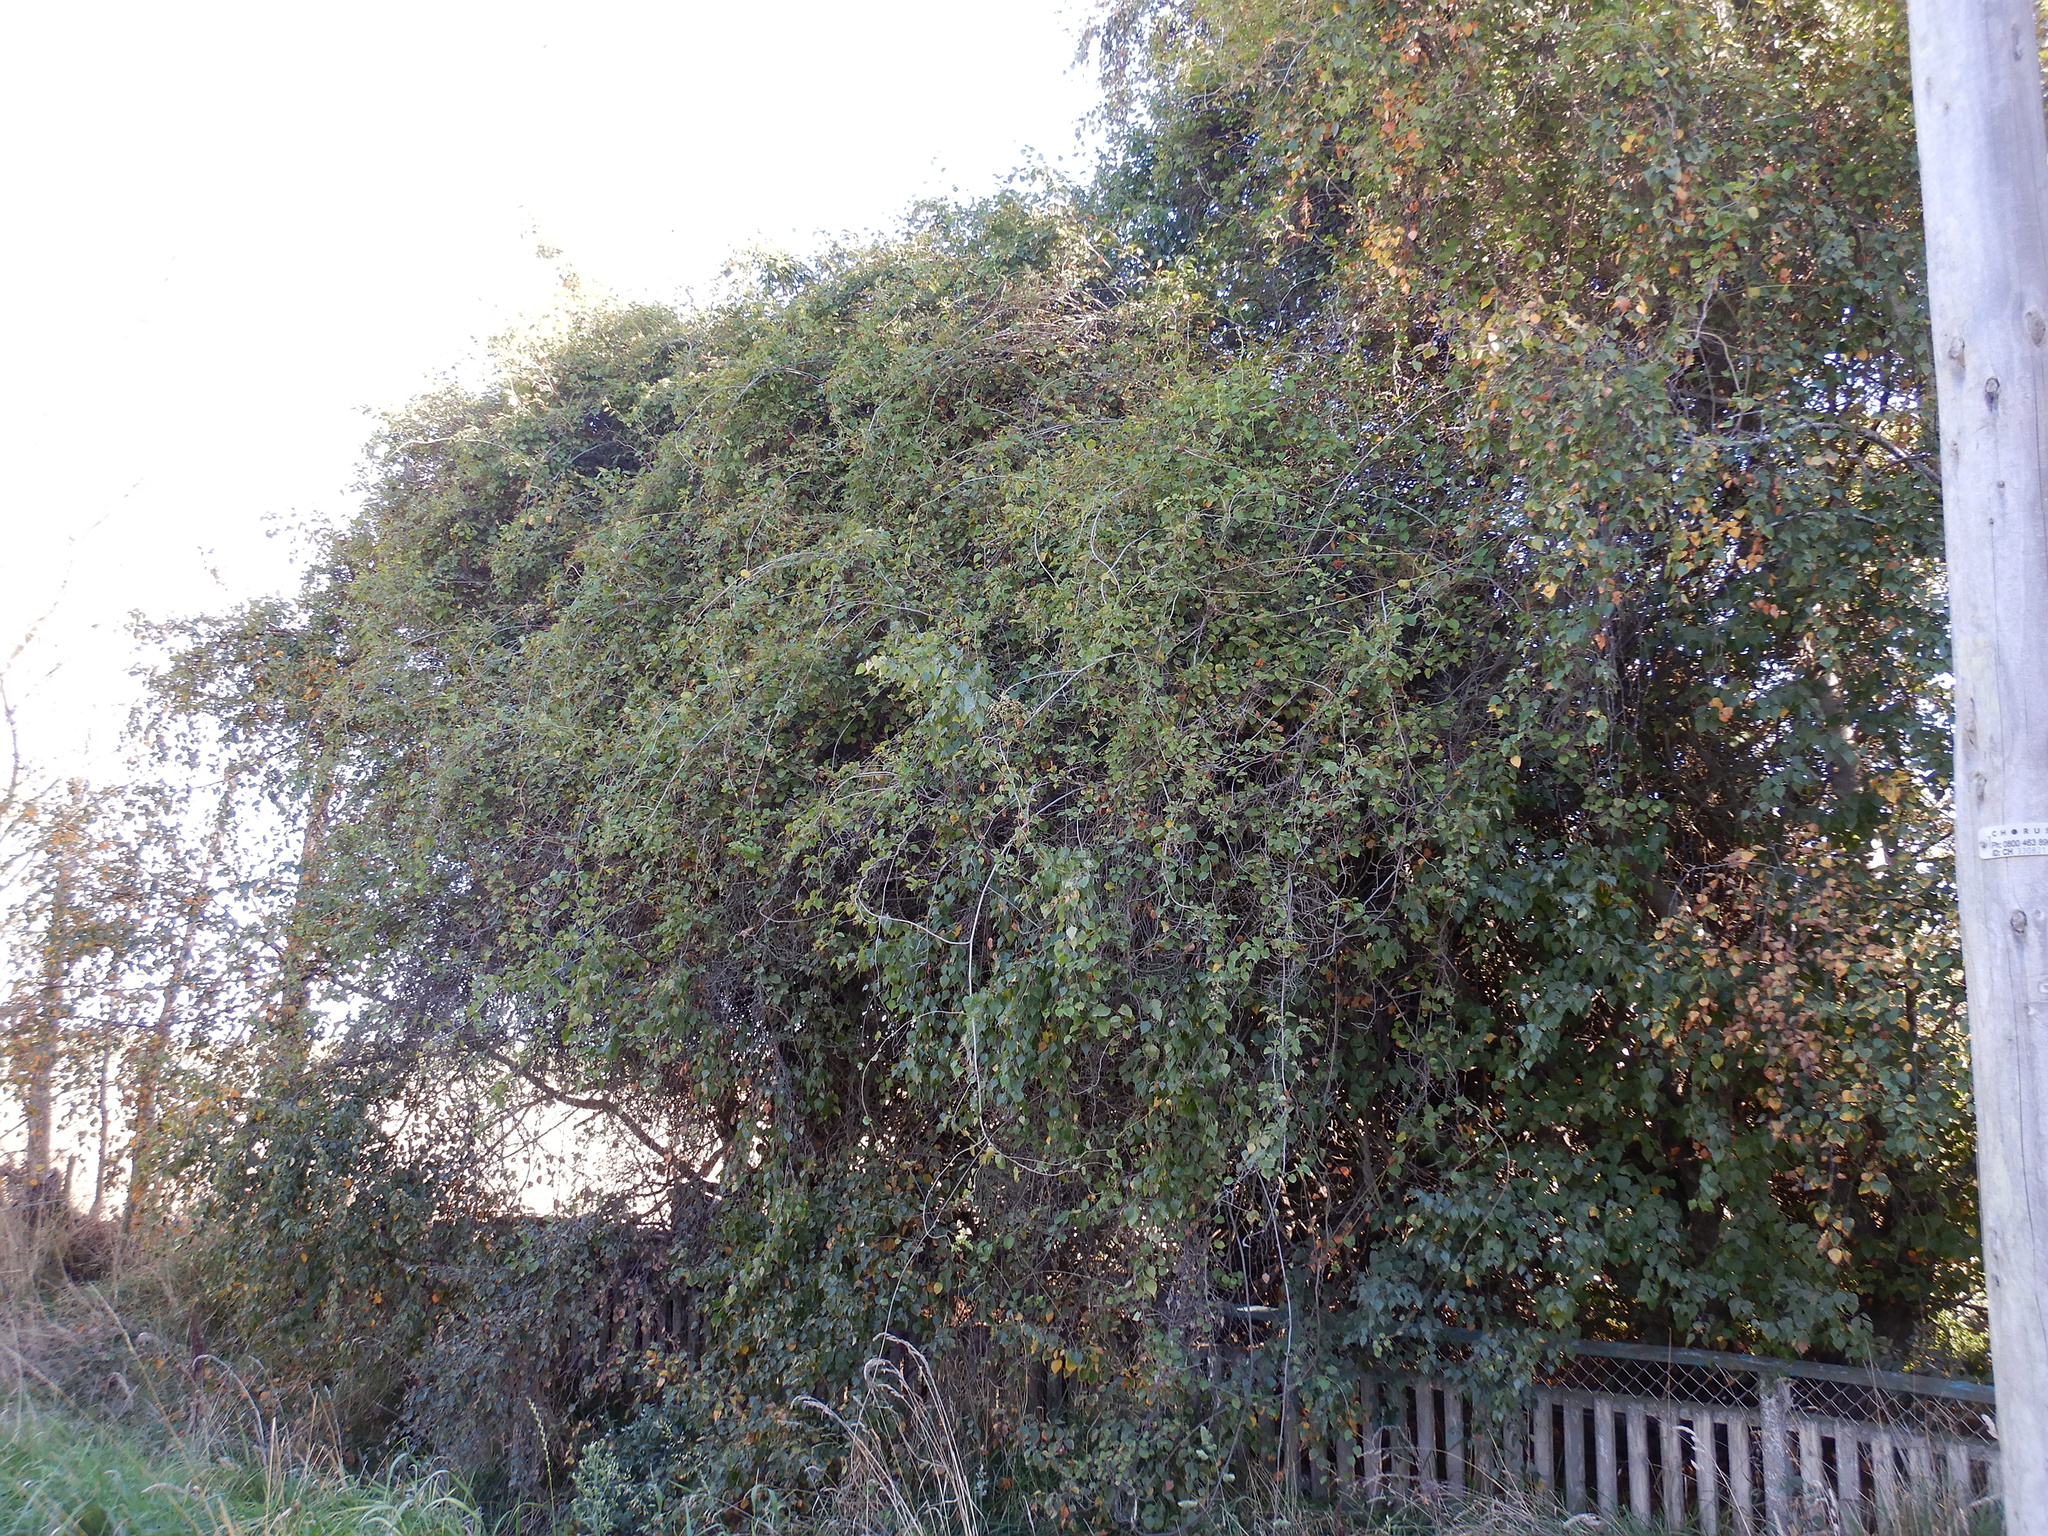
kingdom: Plantae
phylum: Tracheophyta
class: Magnoliopsida
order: Caryophyllales
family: Polygonaceae
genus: Muehlenbeckia
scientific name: Muehlenbeckia australis
